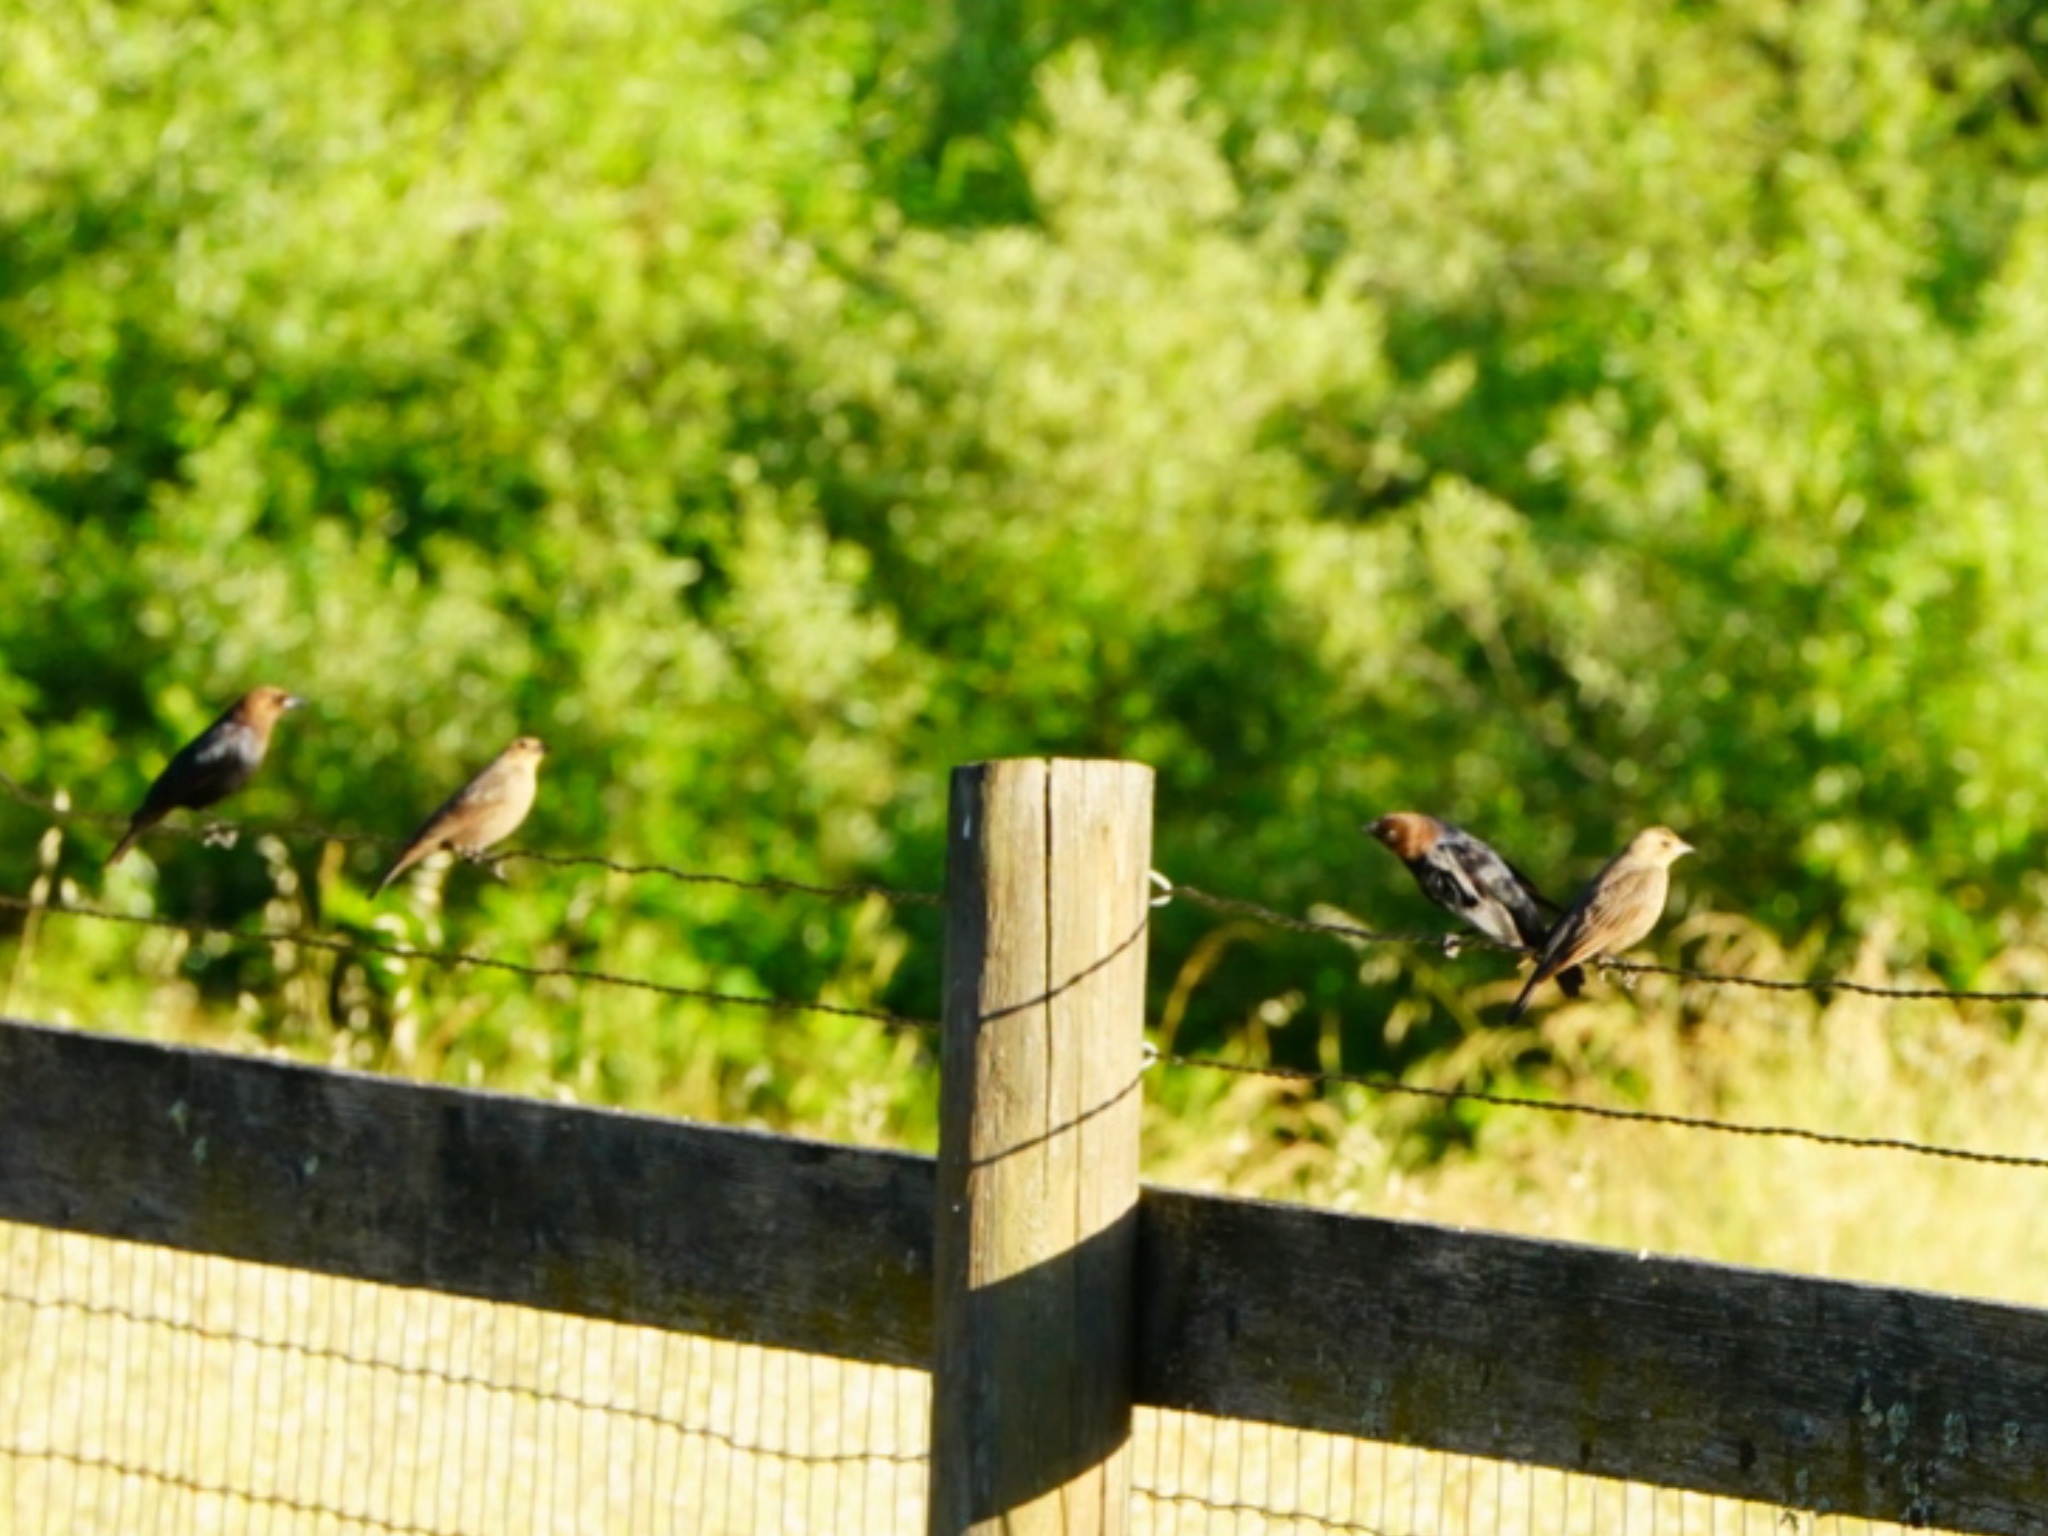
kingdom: Animalia
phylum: Chordata
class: Aves
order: Passeriformes
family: Icteridae
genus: Molothrus
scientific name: Molothrus ater
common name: Brown-headed cowbird
